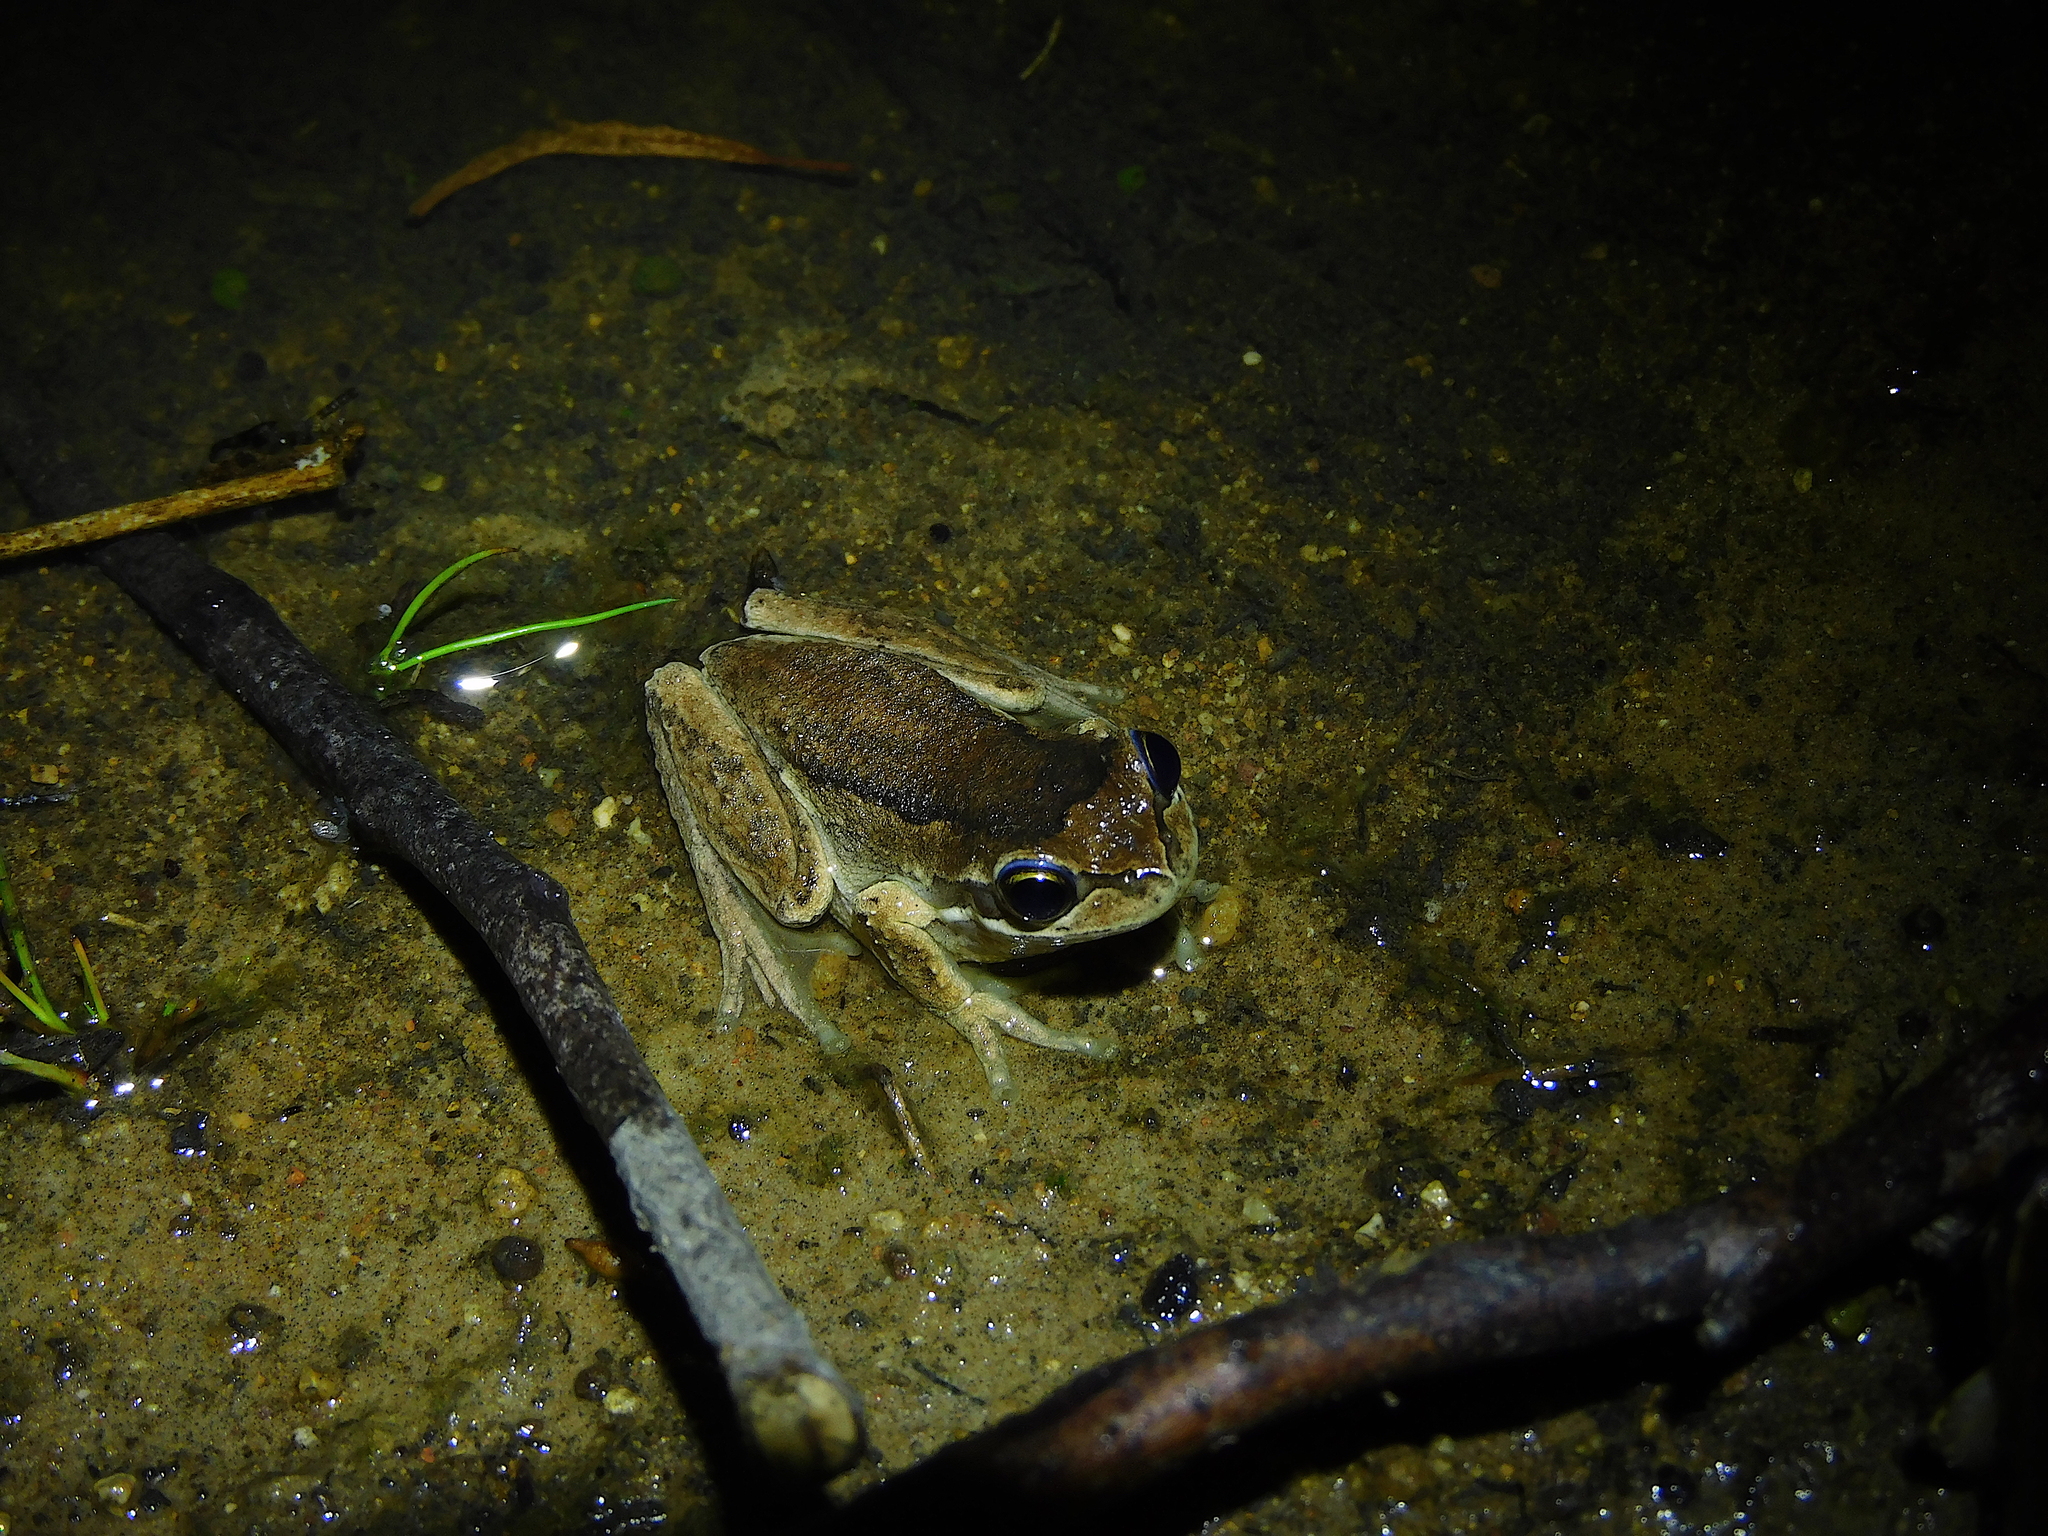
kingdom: Animalia
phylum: Chordata
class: Amphibia
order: Anura
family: Pelodryadidae
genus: Litoria
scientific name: Litoria ewingii
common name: Southern brown tree frog
